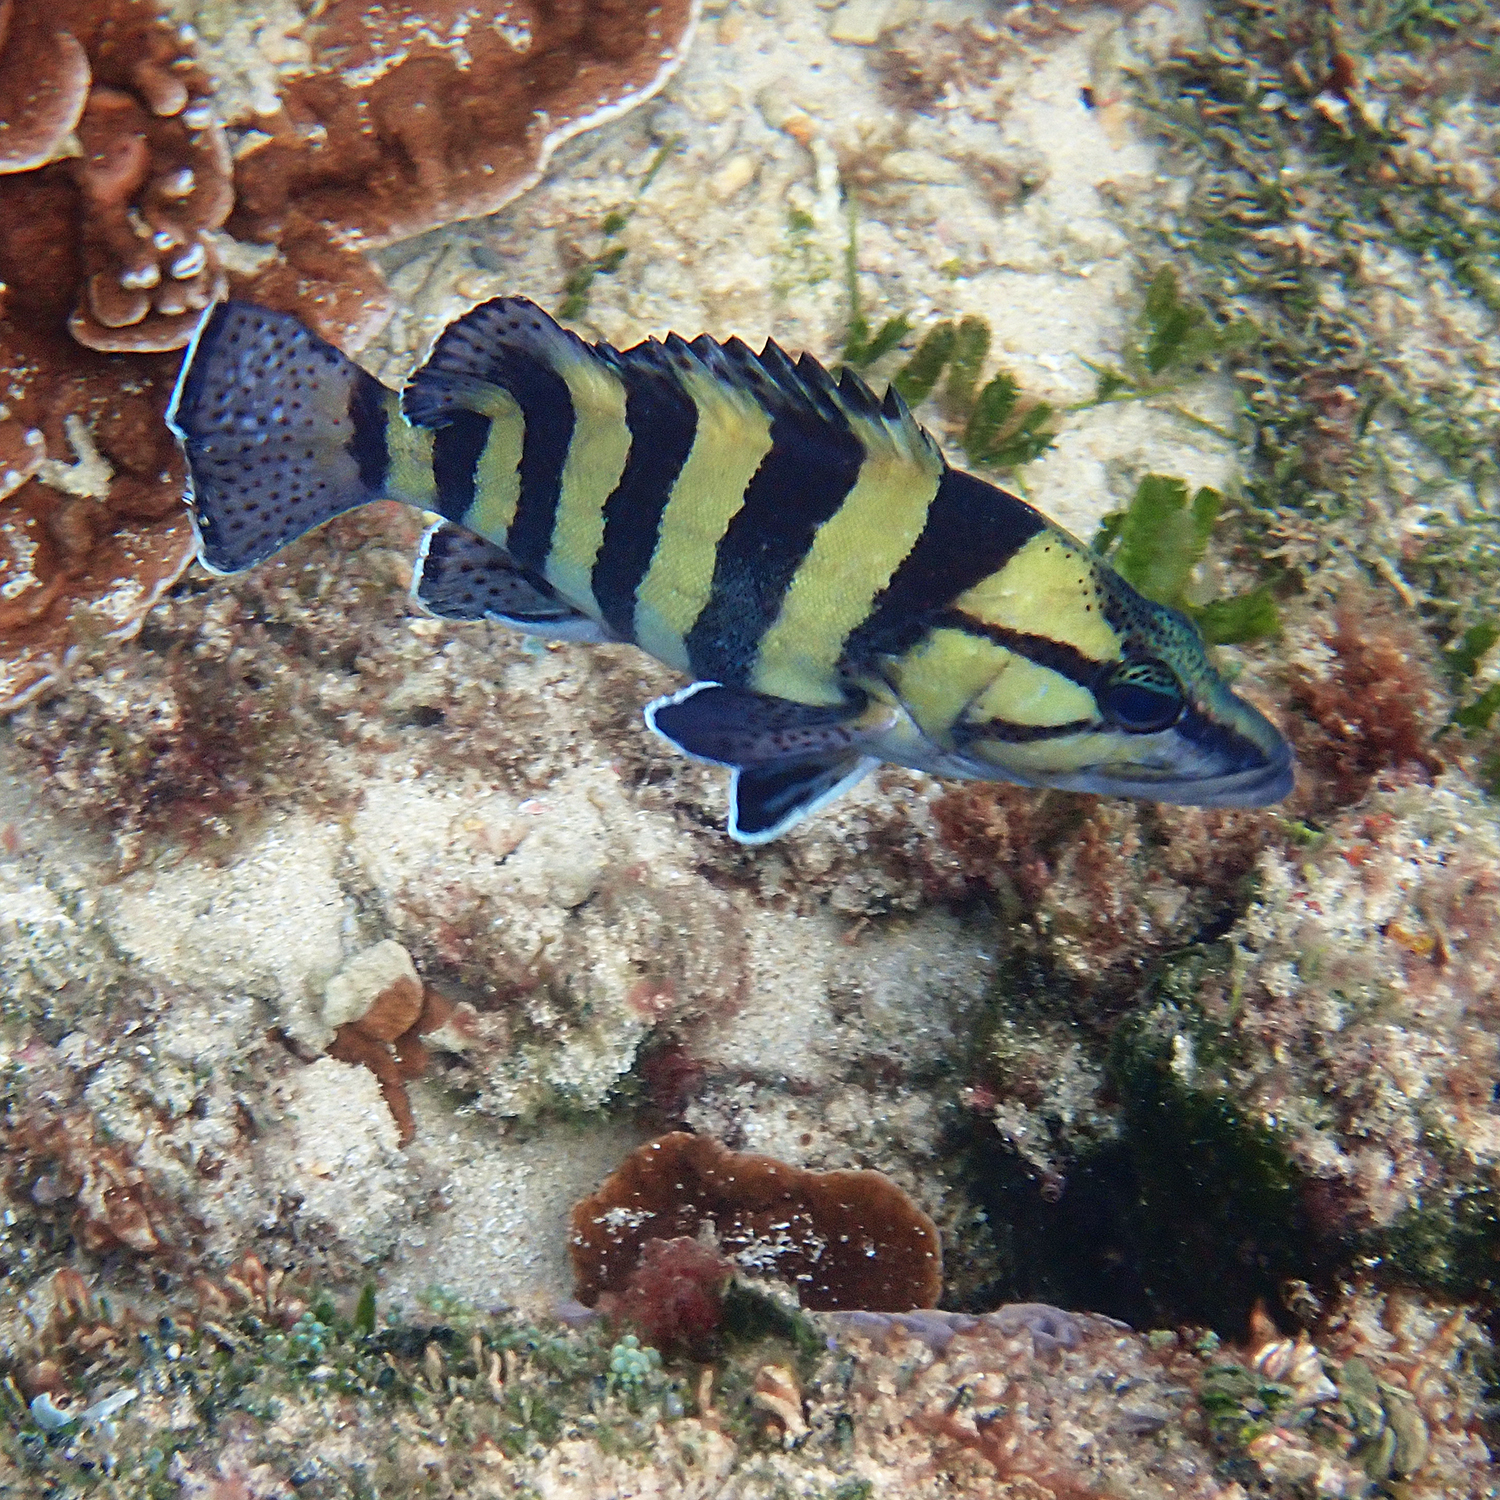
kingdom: Animalia
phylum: Chordata
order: Perciformes
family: Serranidae
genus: Acanthistius
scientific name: Acanthistius cinctus
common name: Girdled rock cod
